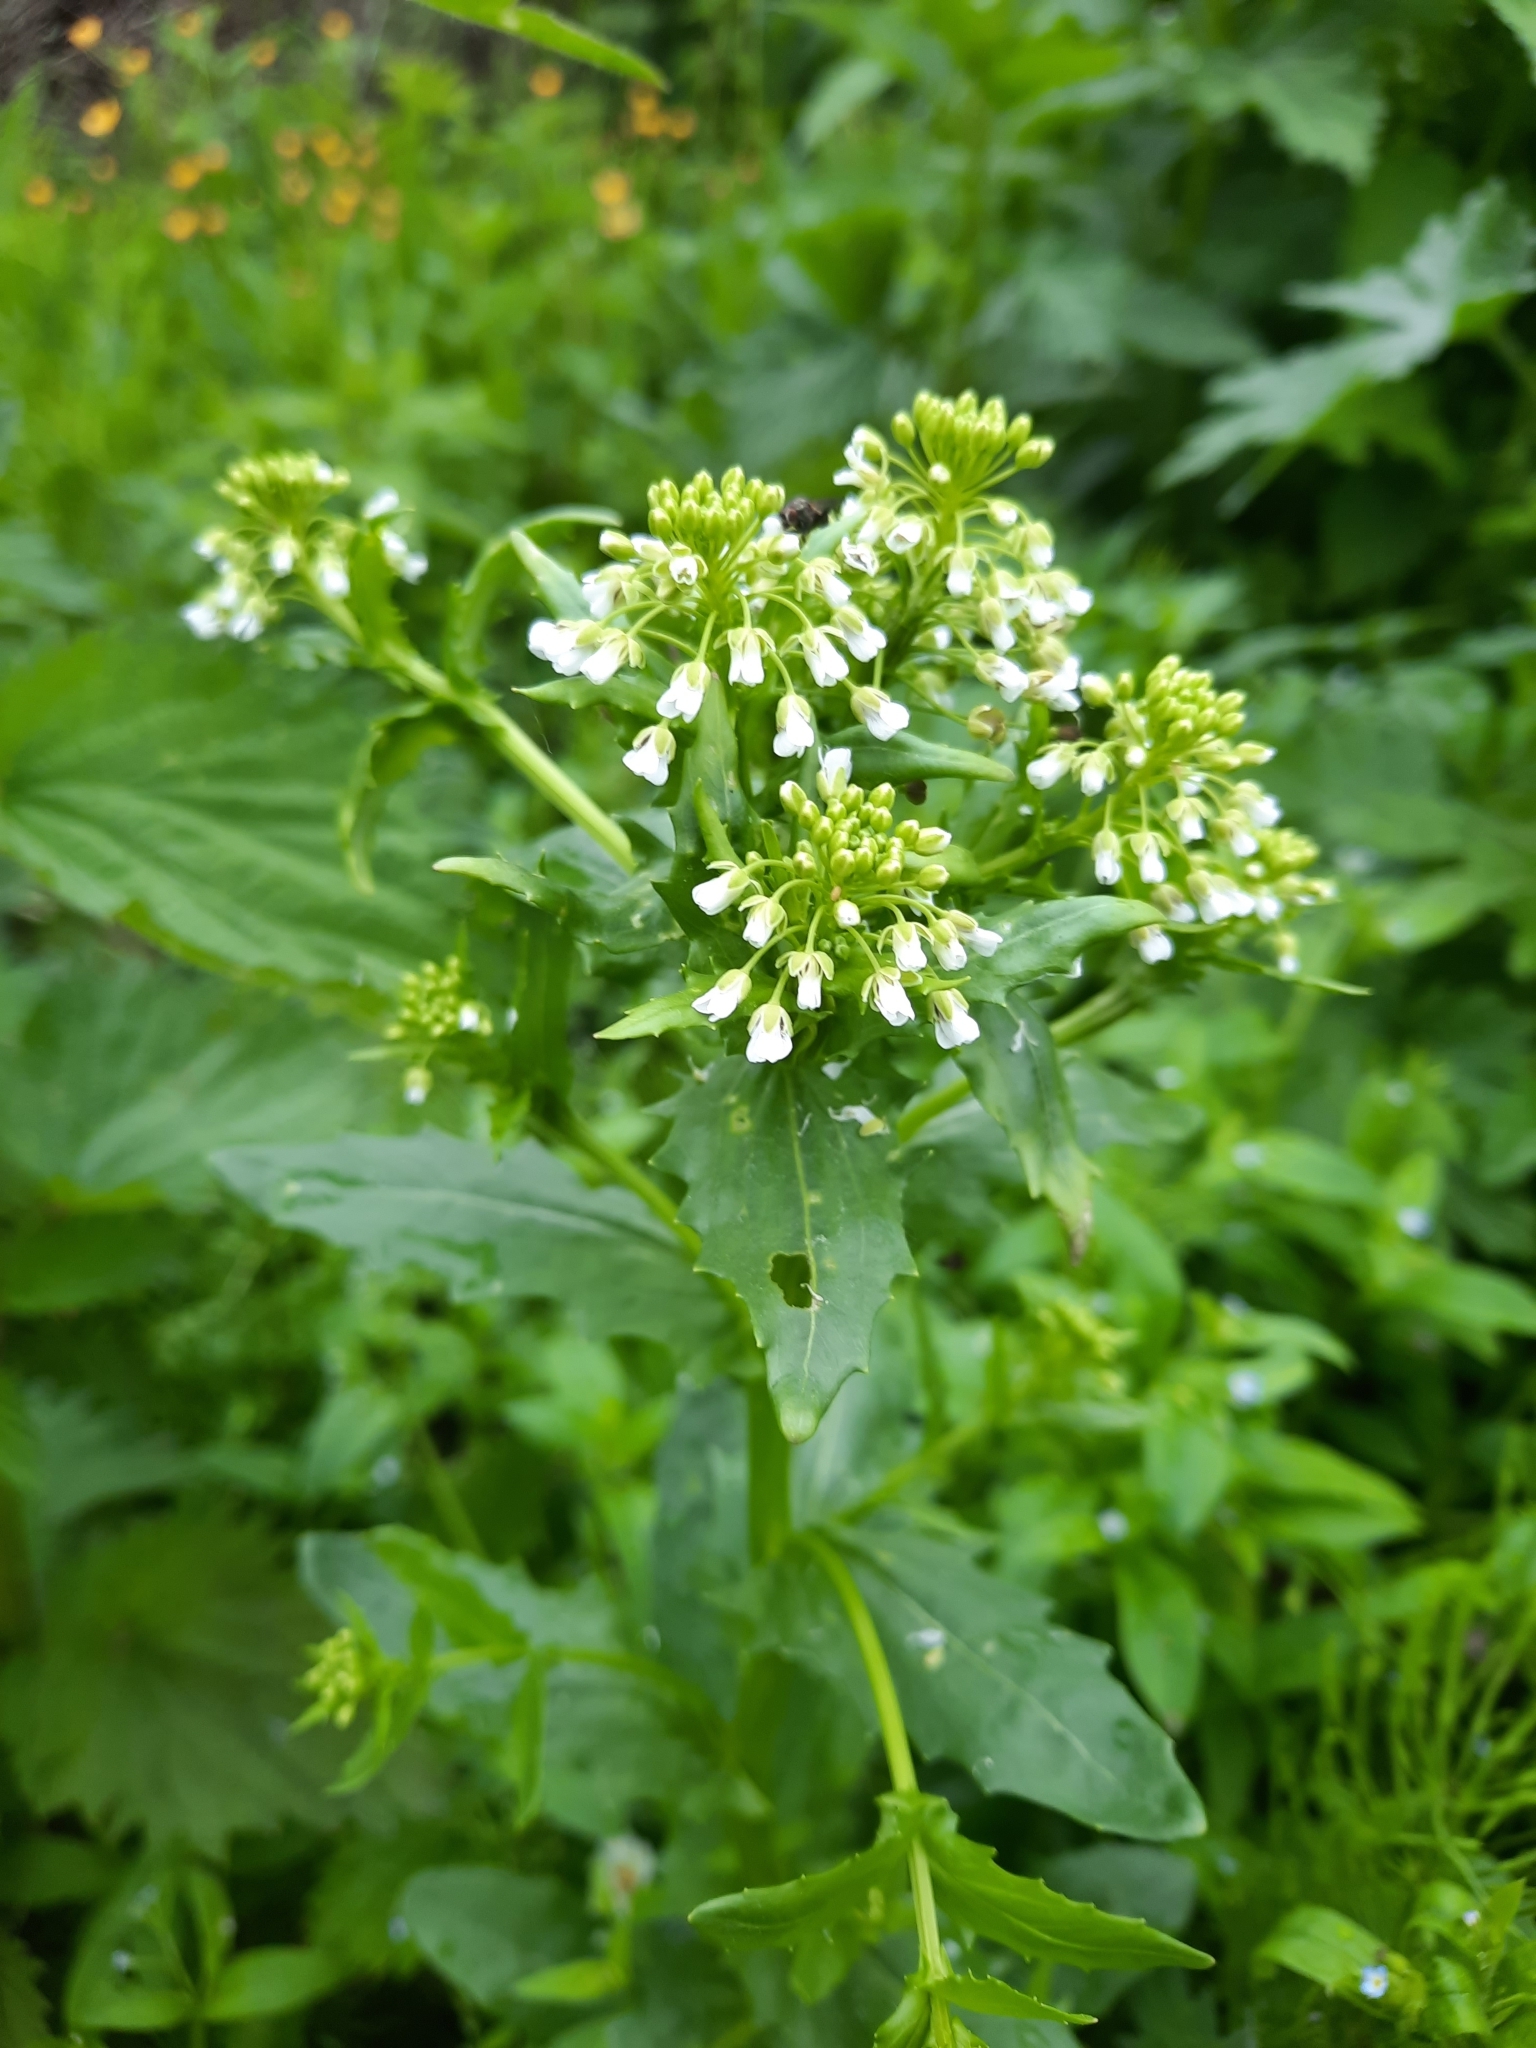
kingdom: Plantae
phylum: Tracheophyta
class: Magnoliopsida
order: Brassicales
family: Brassicaceae
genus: Thlaspi
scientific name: Thlaspi arvense
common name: Field pennycress
